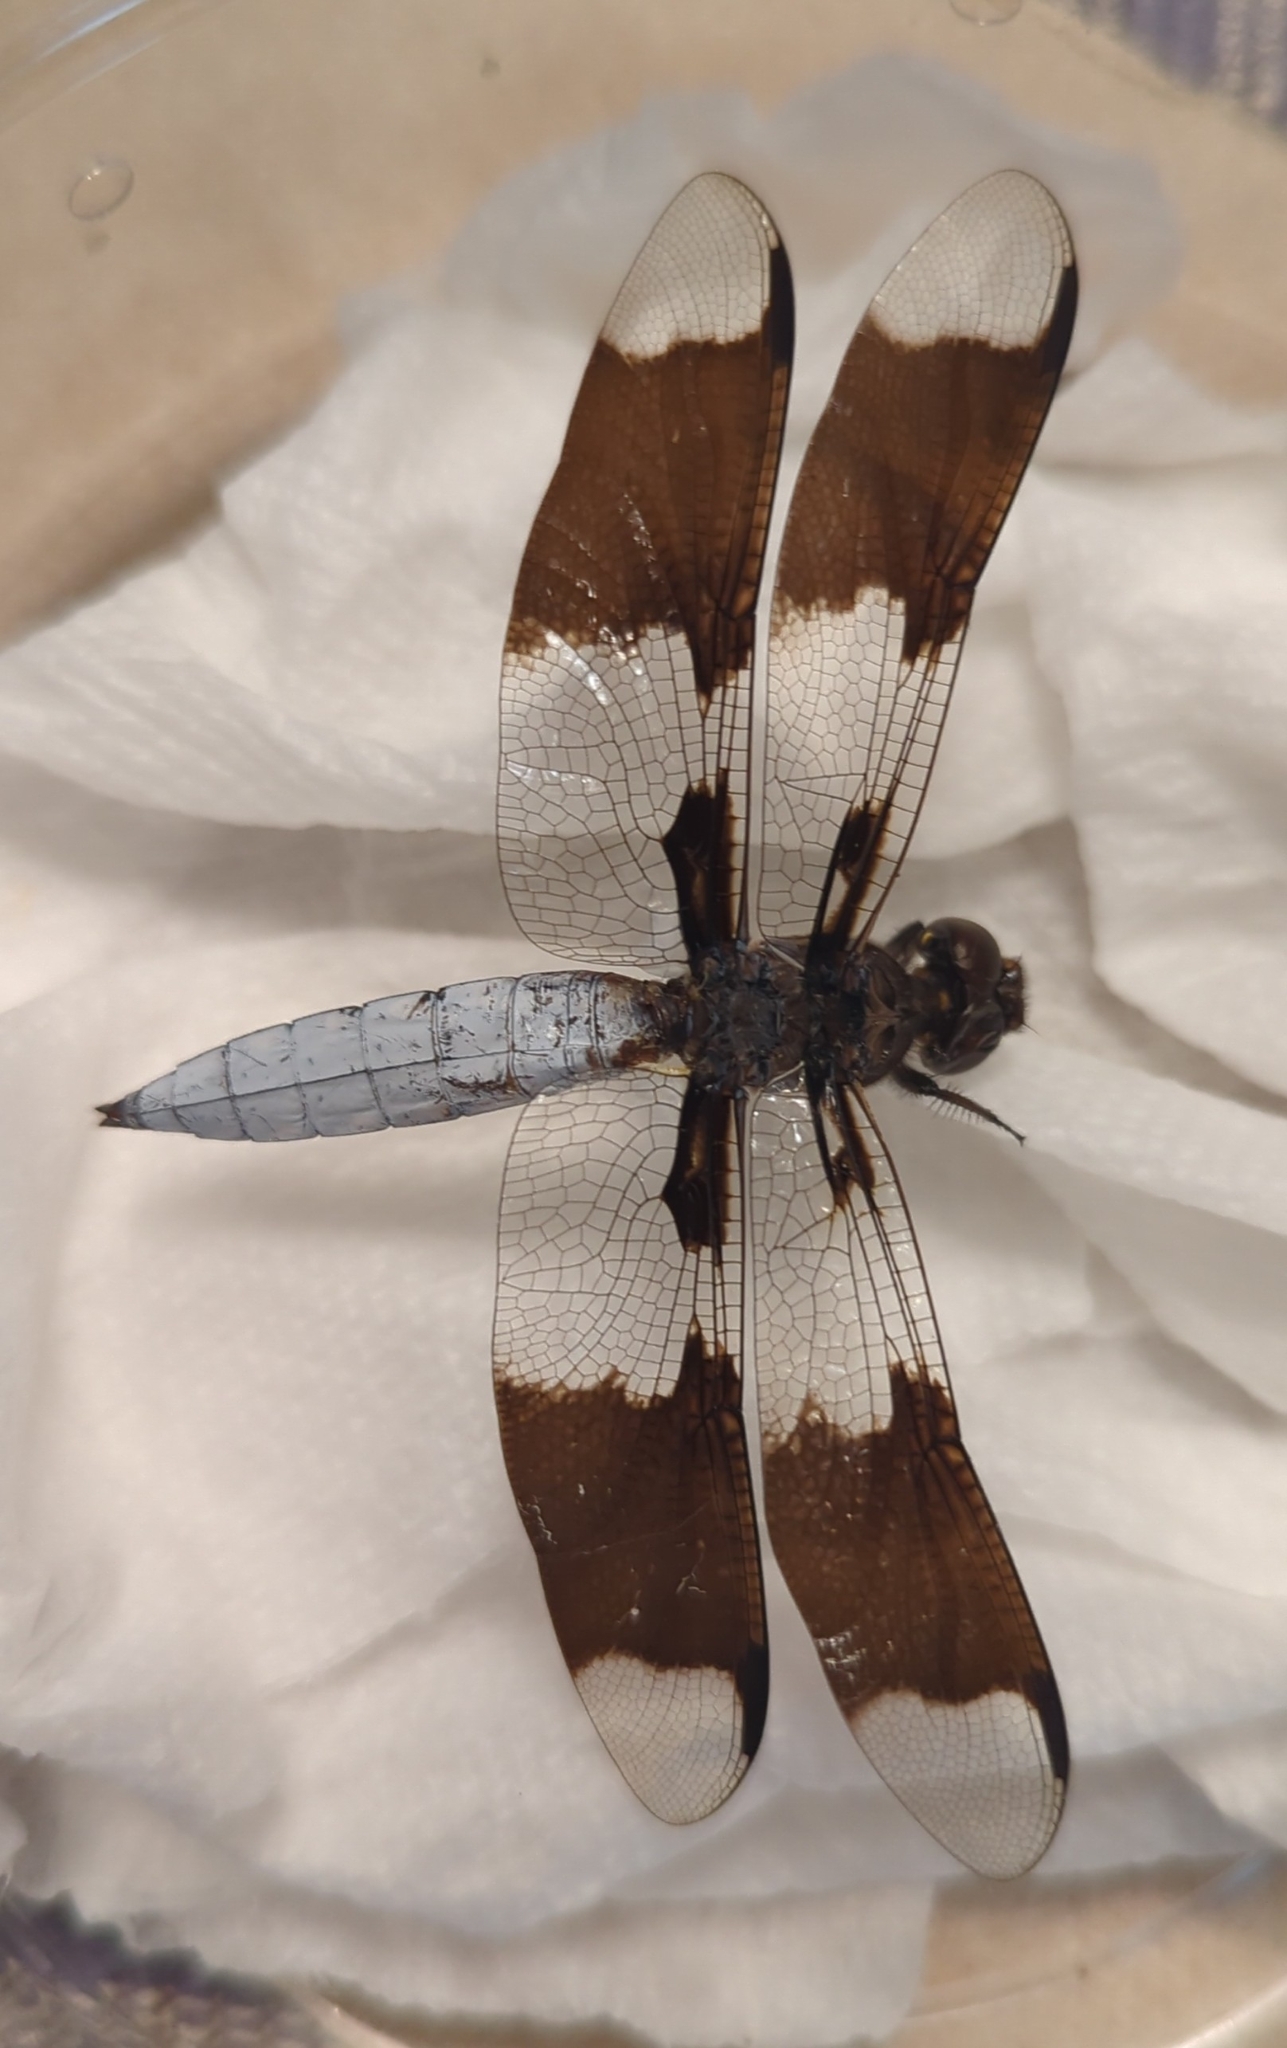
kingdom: Animalia
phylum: Arthropoda
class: Insecta
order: Odonata
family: Libellulidae
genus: Plathemis
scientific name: Plathemis lydia
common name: Common whitetail
